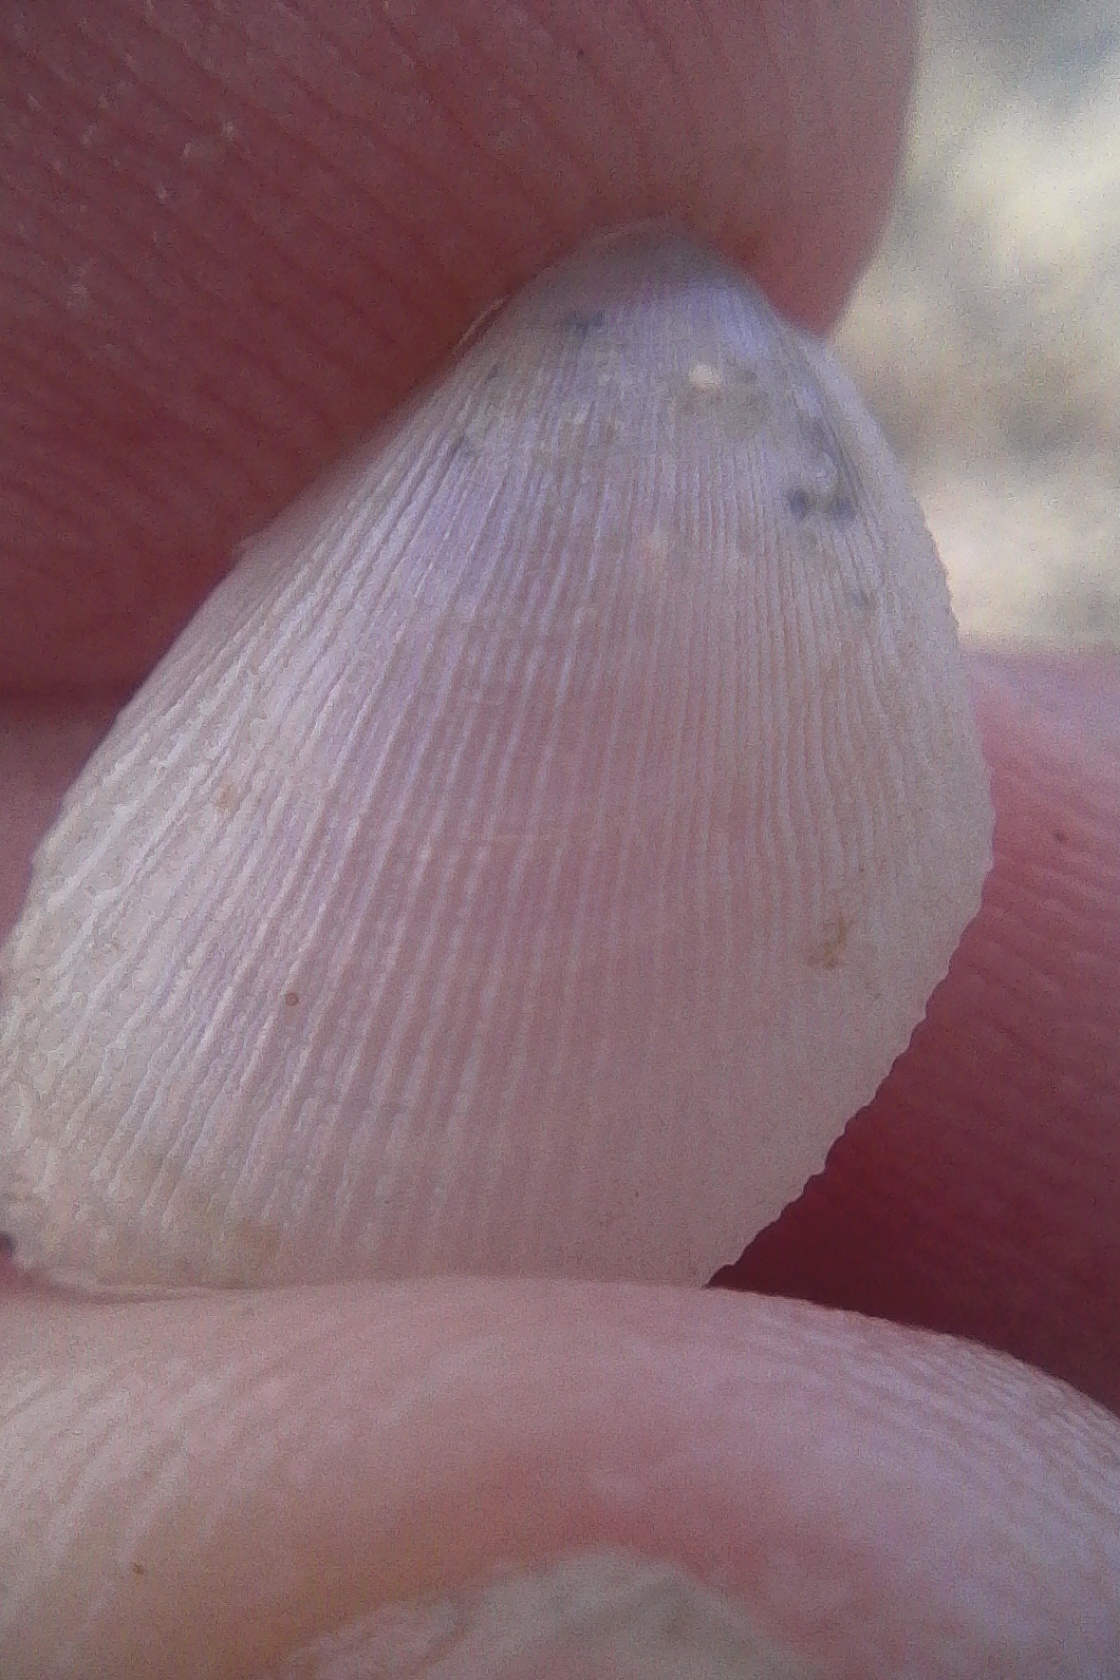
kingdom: Animalia
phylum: Mollusca
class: Bivalvia
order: Limida
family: Limidae
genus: Limaria
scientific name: Limaria orientalis
